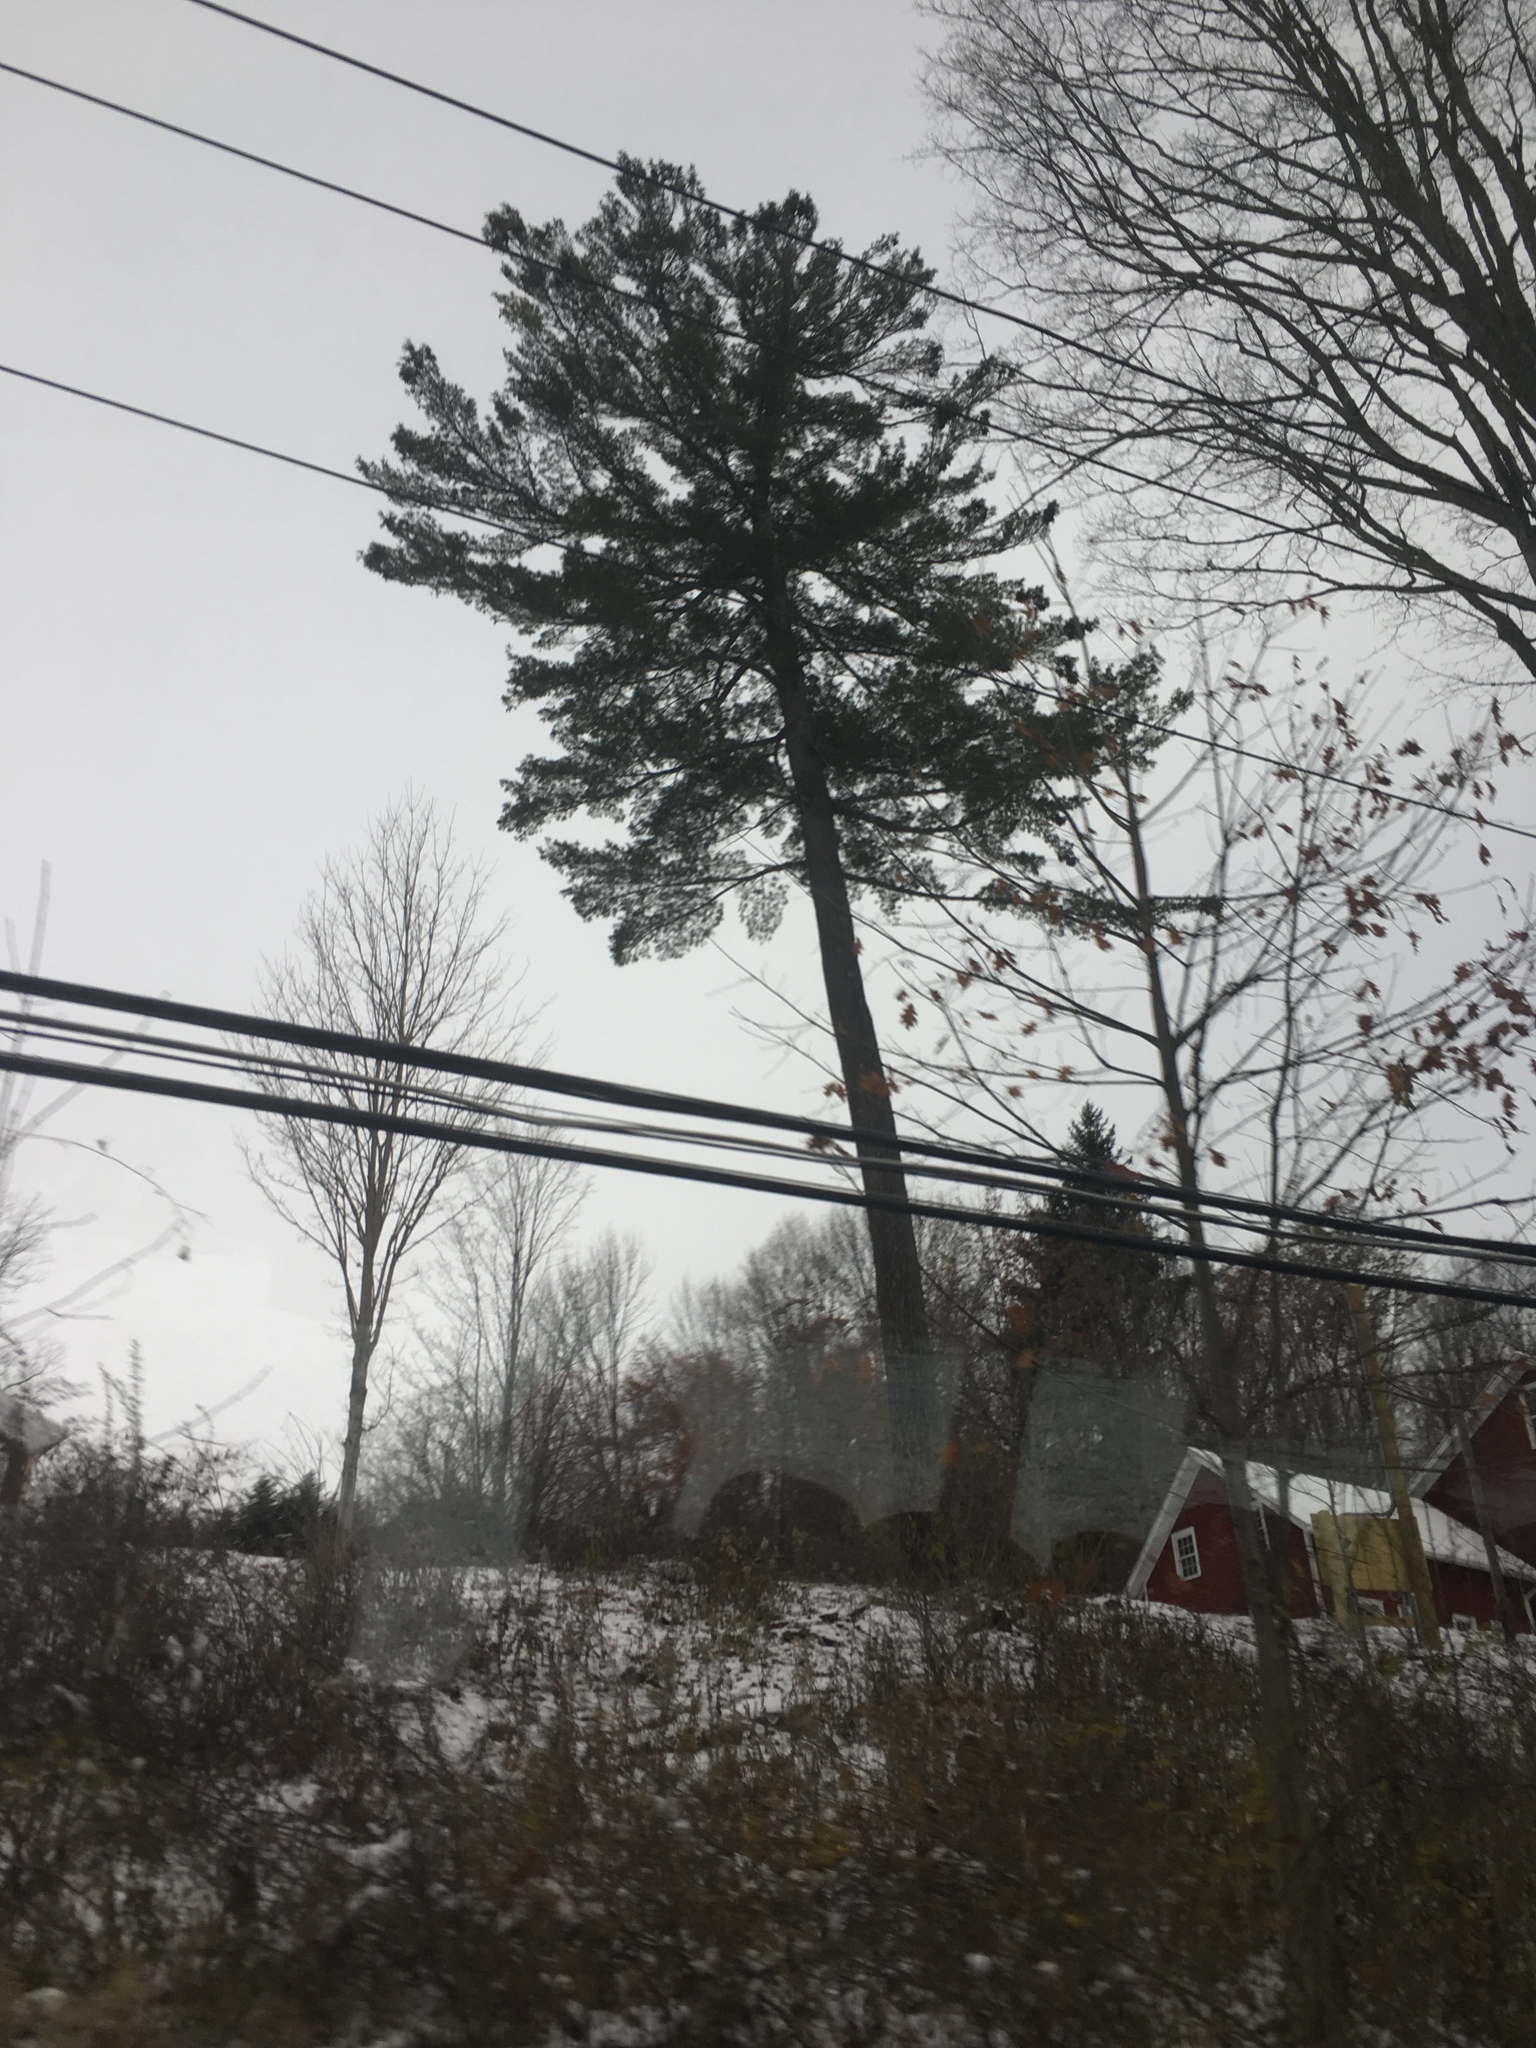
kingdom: Plantae
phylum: Tracheophyta
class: Pinopsida
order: Pinales
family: Pinaceae
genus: Pinus
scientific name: Pinus strobus
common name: Weymouth pine
